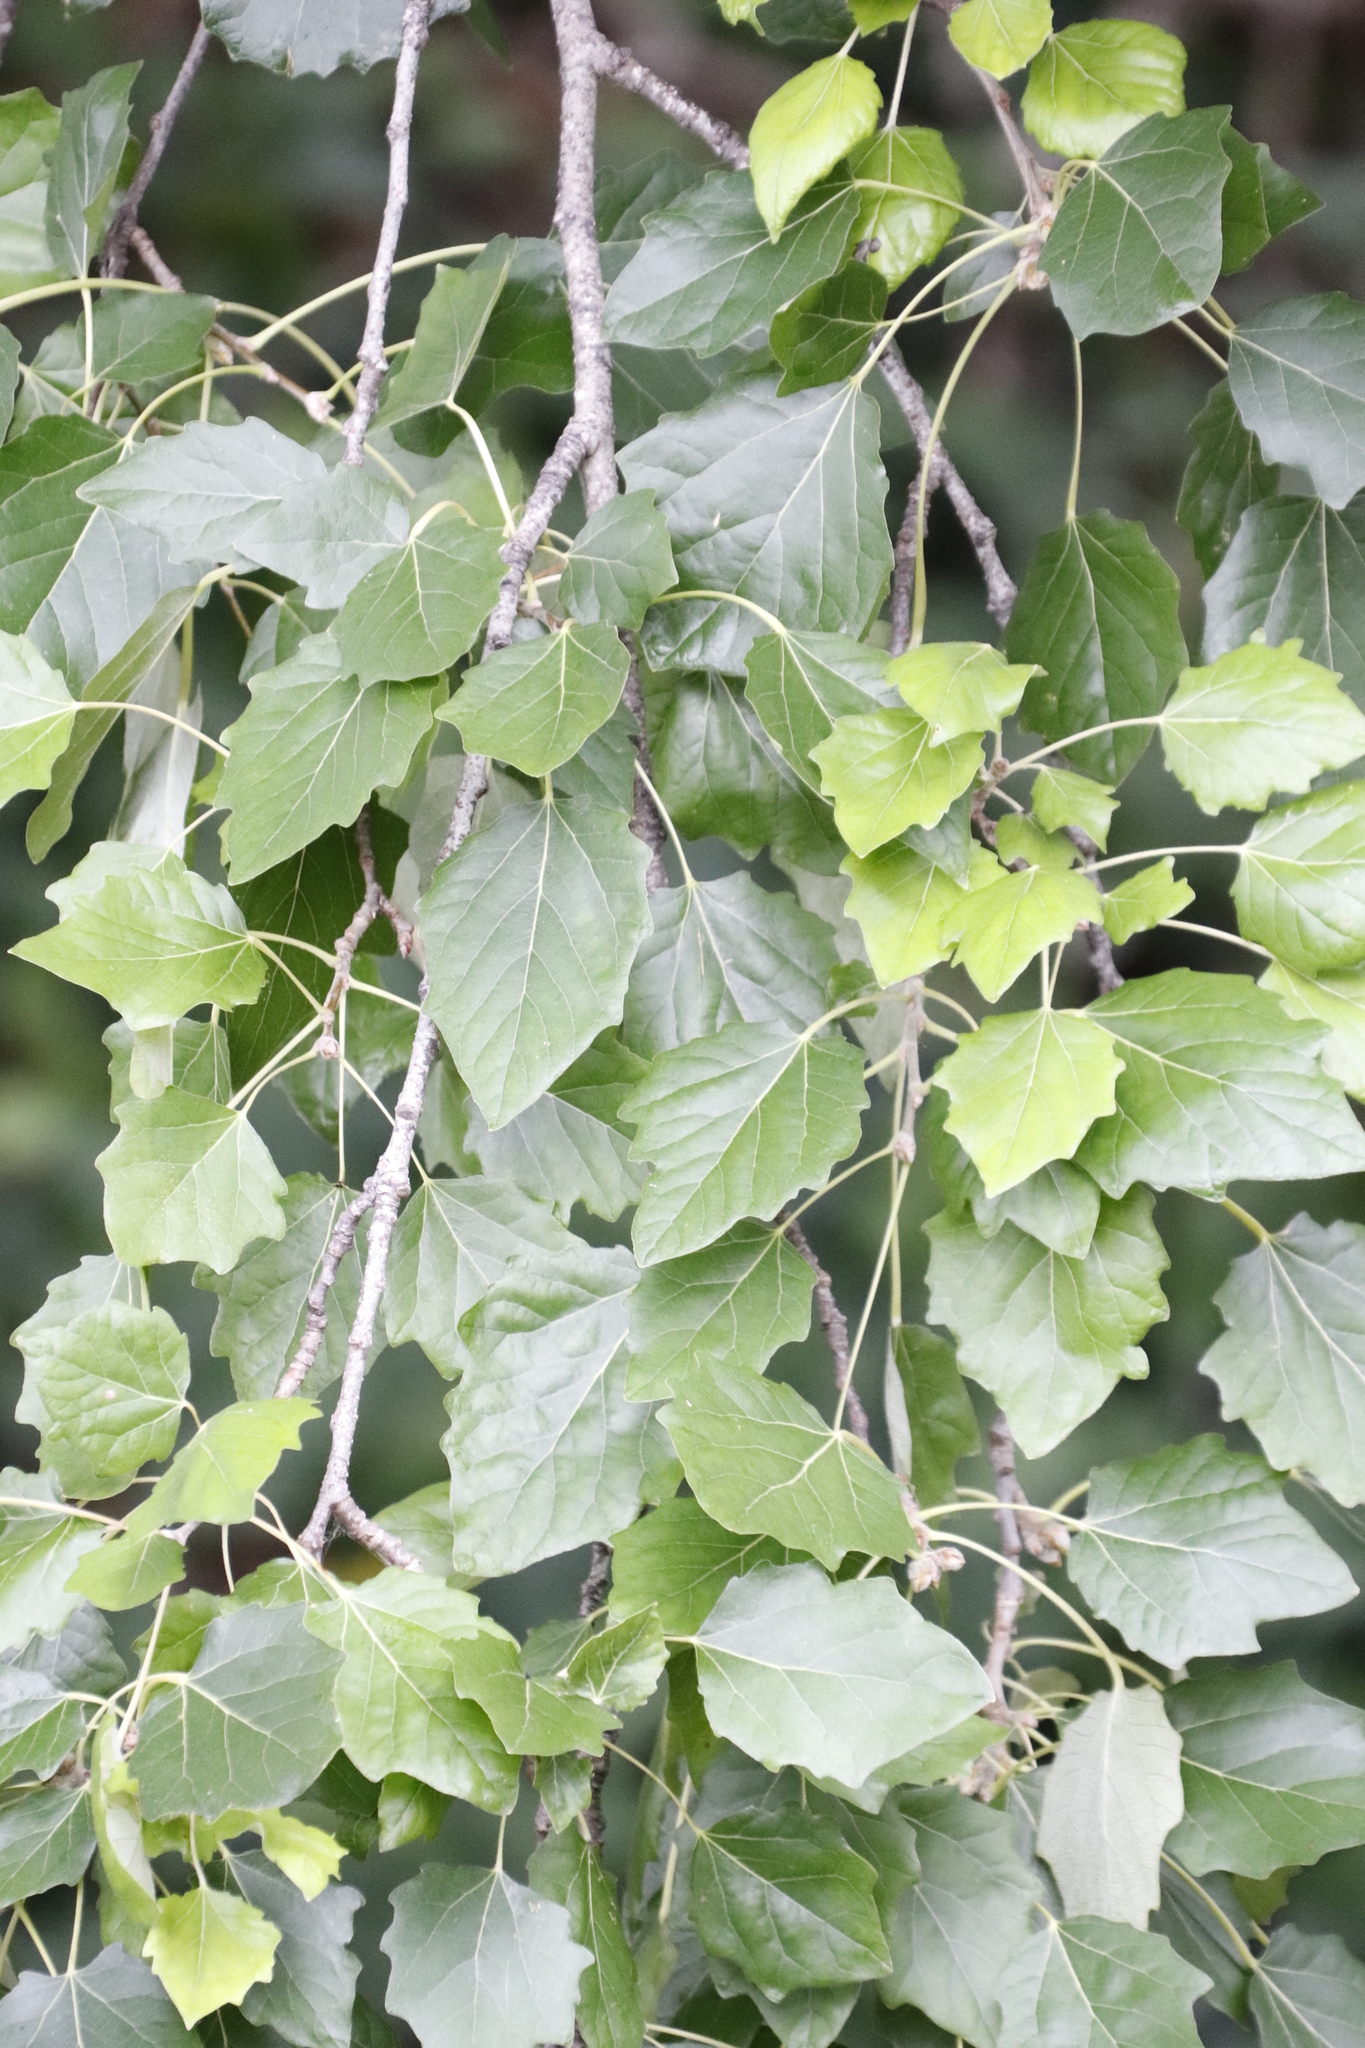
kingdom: Plantae
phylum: Tracheophyta
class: Magnoliopsida
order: Malpighiales
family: Salicaceae
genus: Populus
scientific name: Populus canescens
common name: Gray poplar
